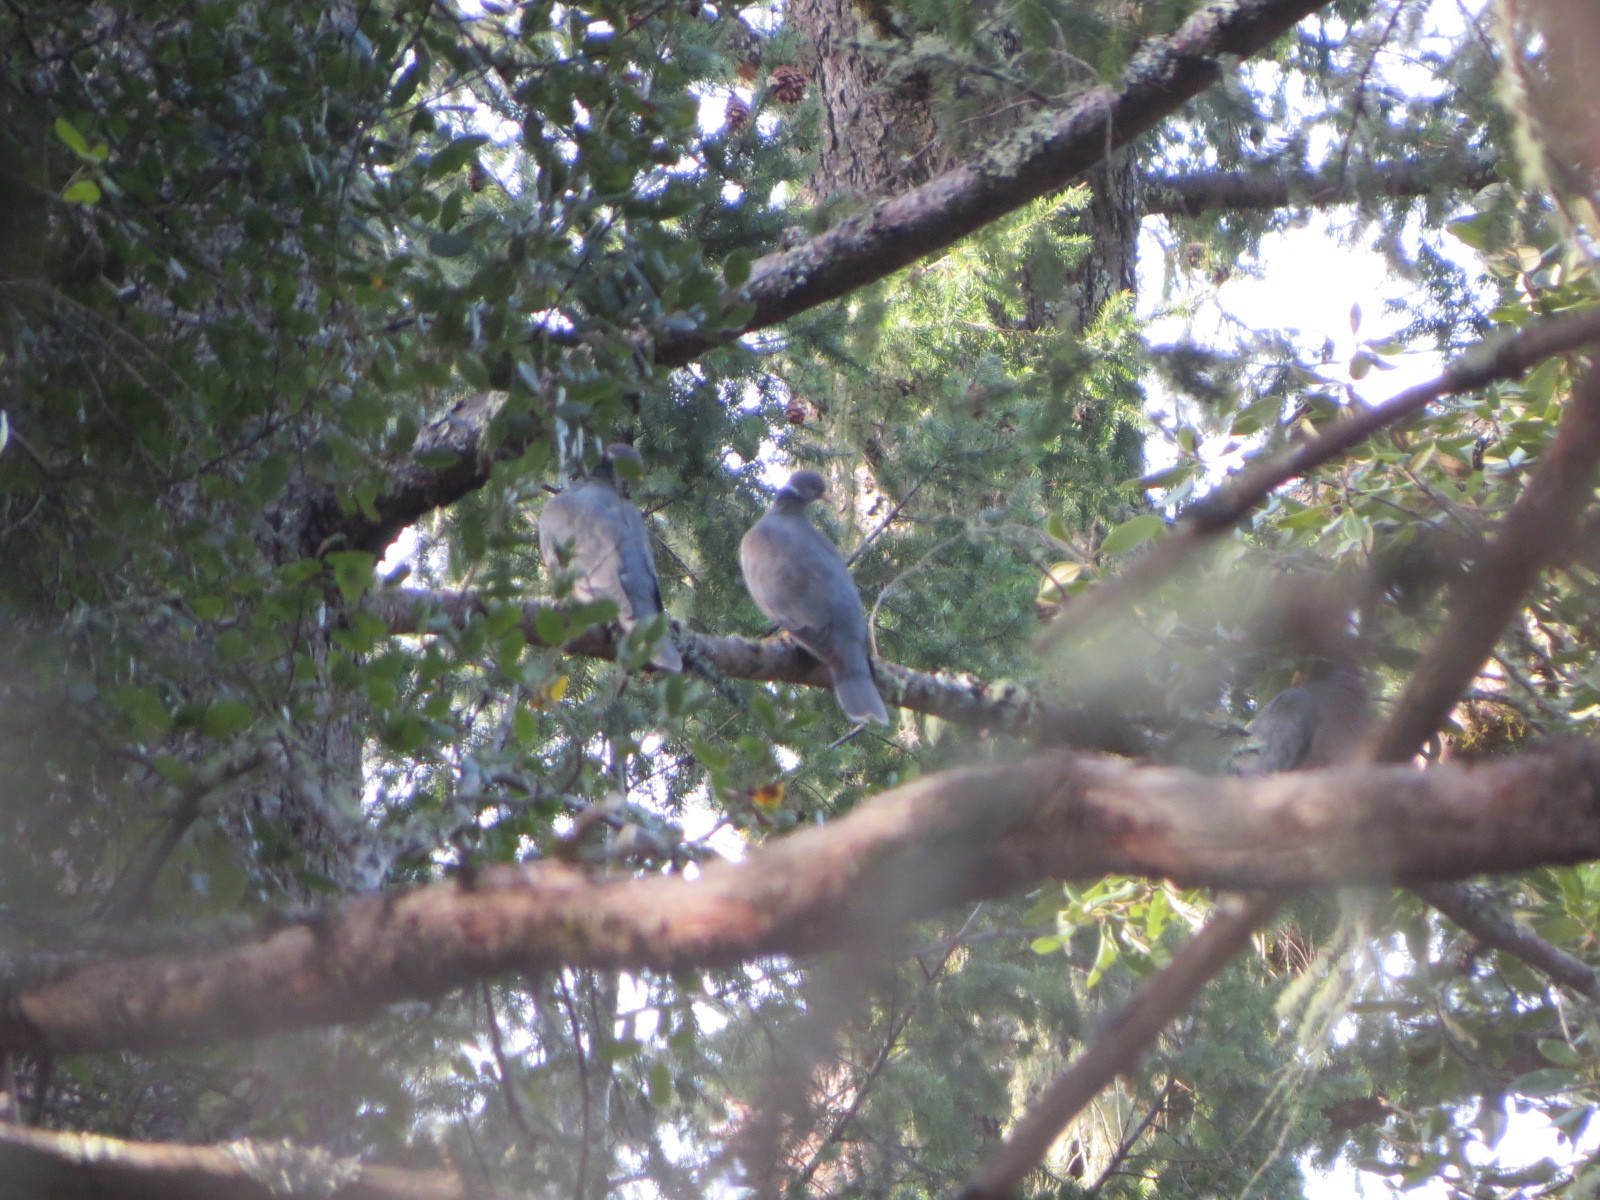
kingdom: Animalia
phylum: Chordata
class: Aves
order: Columbiformes
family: Columbidae
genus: Patagioenas
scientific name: Patagioenas fasciata
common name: Band-tailed pigeon
